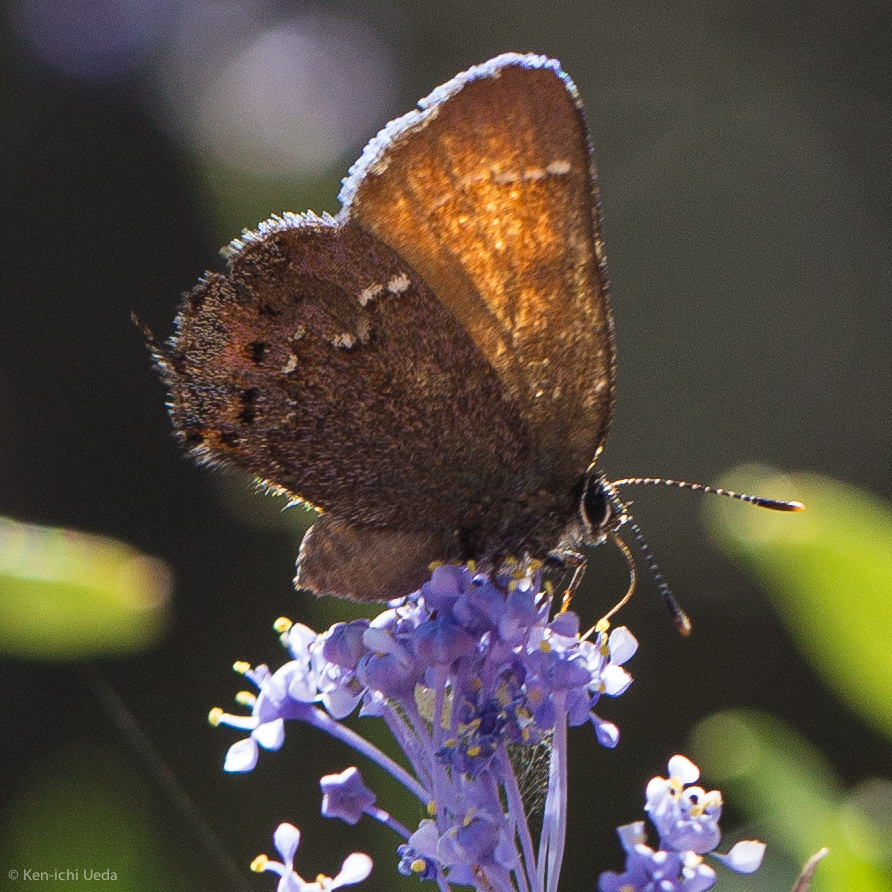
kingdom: Animalia
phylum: Arthropoda
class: Insecta
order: Lepidoptera
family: Lycaenidae
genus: Callophrys
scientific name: Callophrys muiri
